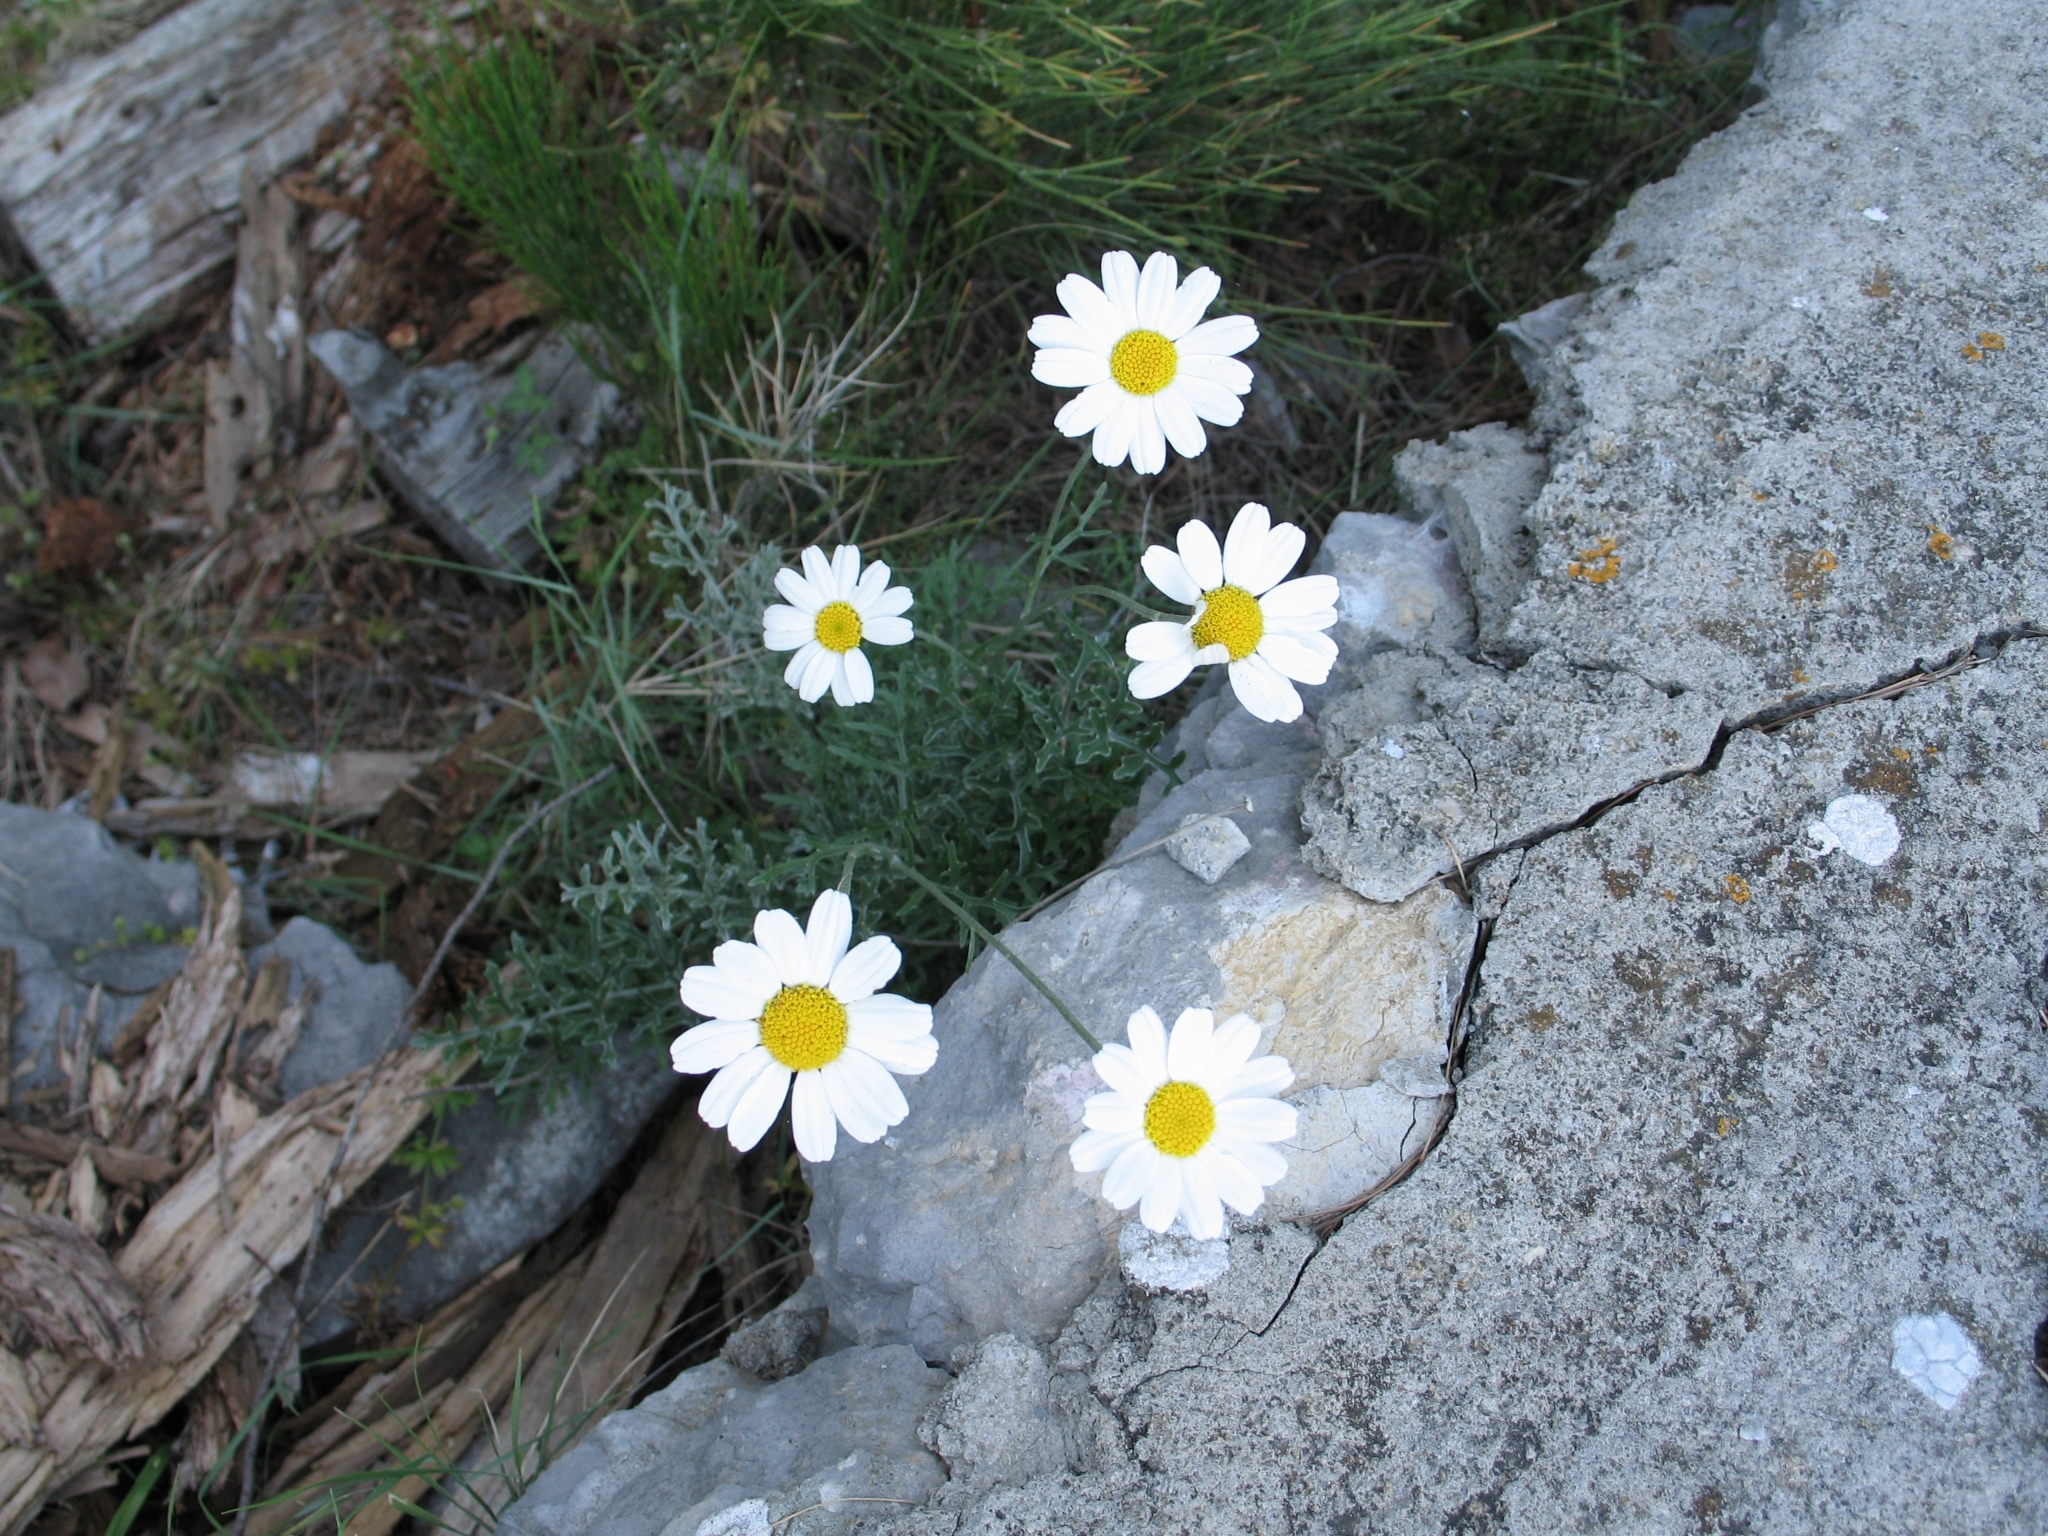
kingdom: Plantae
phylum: Tracheophyta
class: Magnoliopsida
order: Asterales
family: Asteraceae
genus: Tanacetum
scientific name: Tanacetum cinerariifolium
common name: Dalmatian pyrethrum
